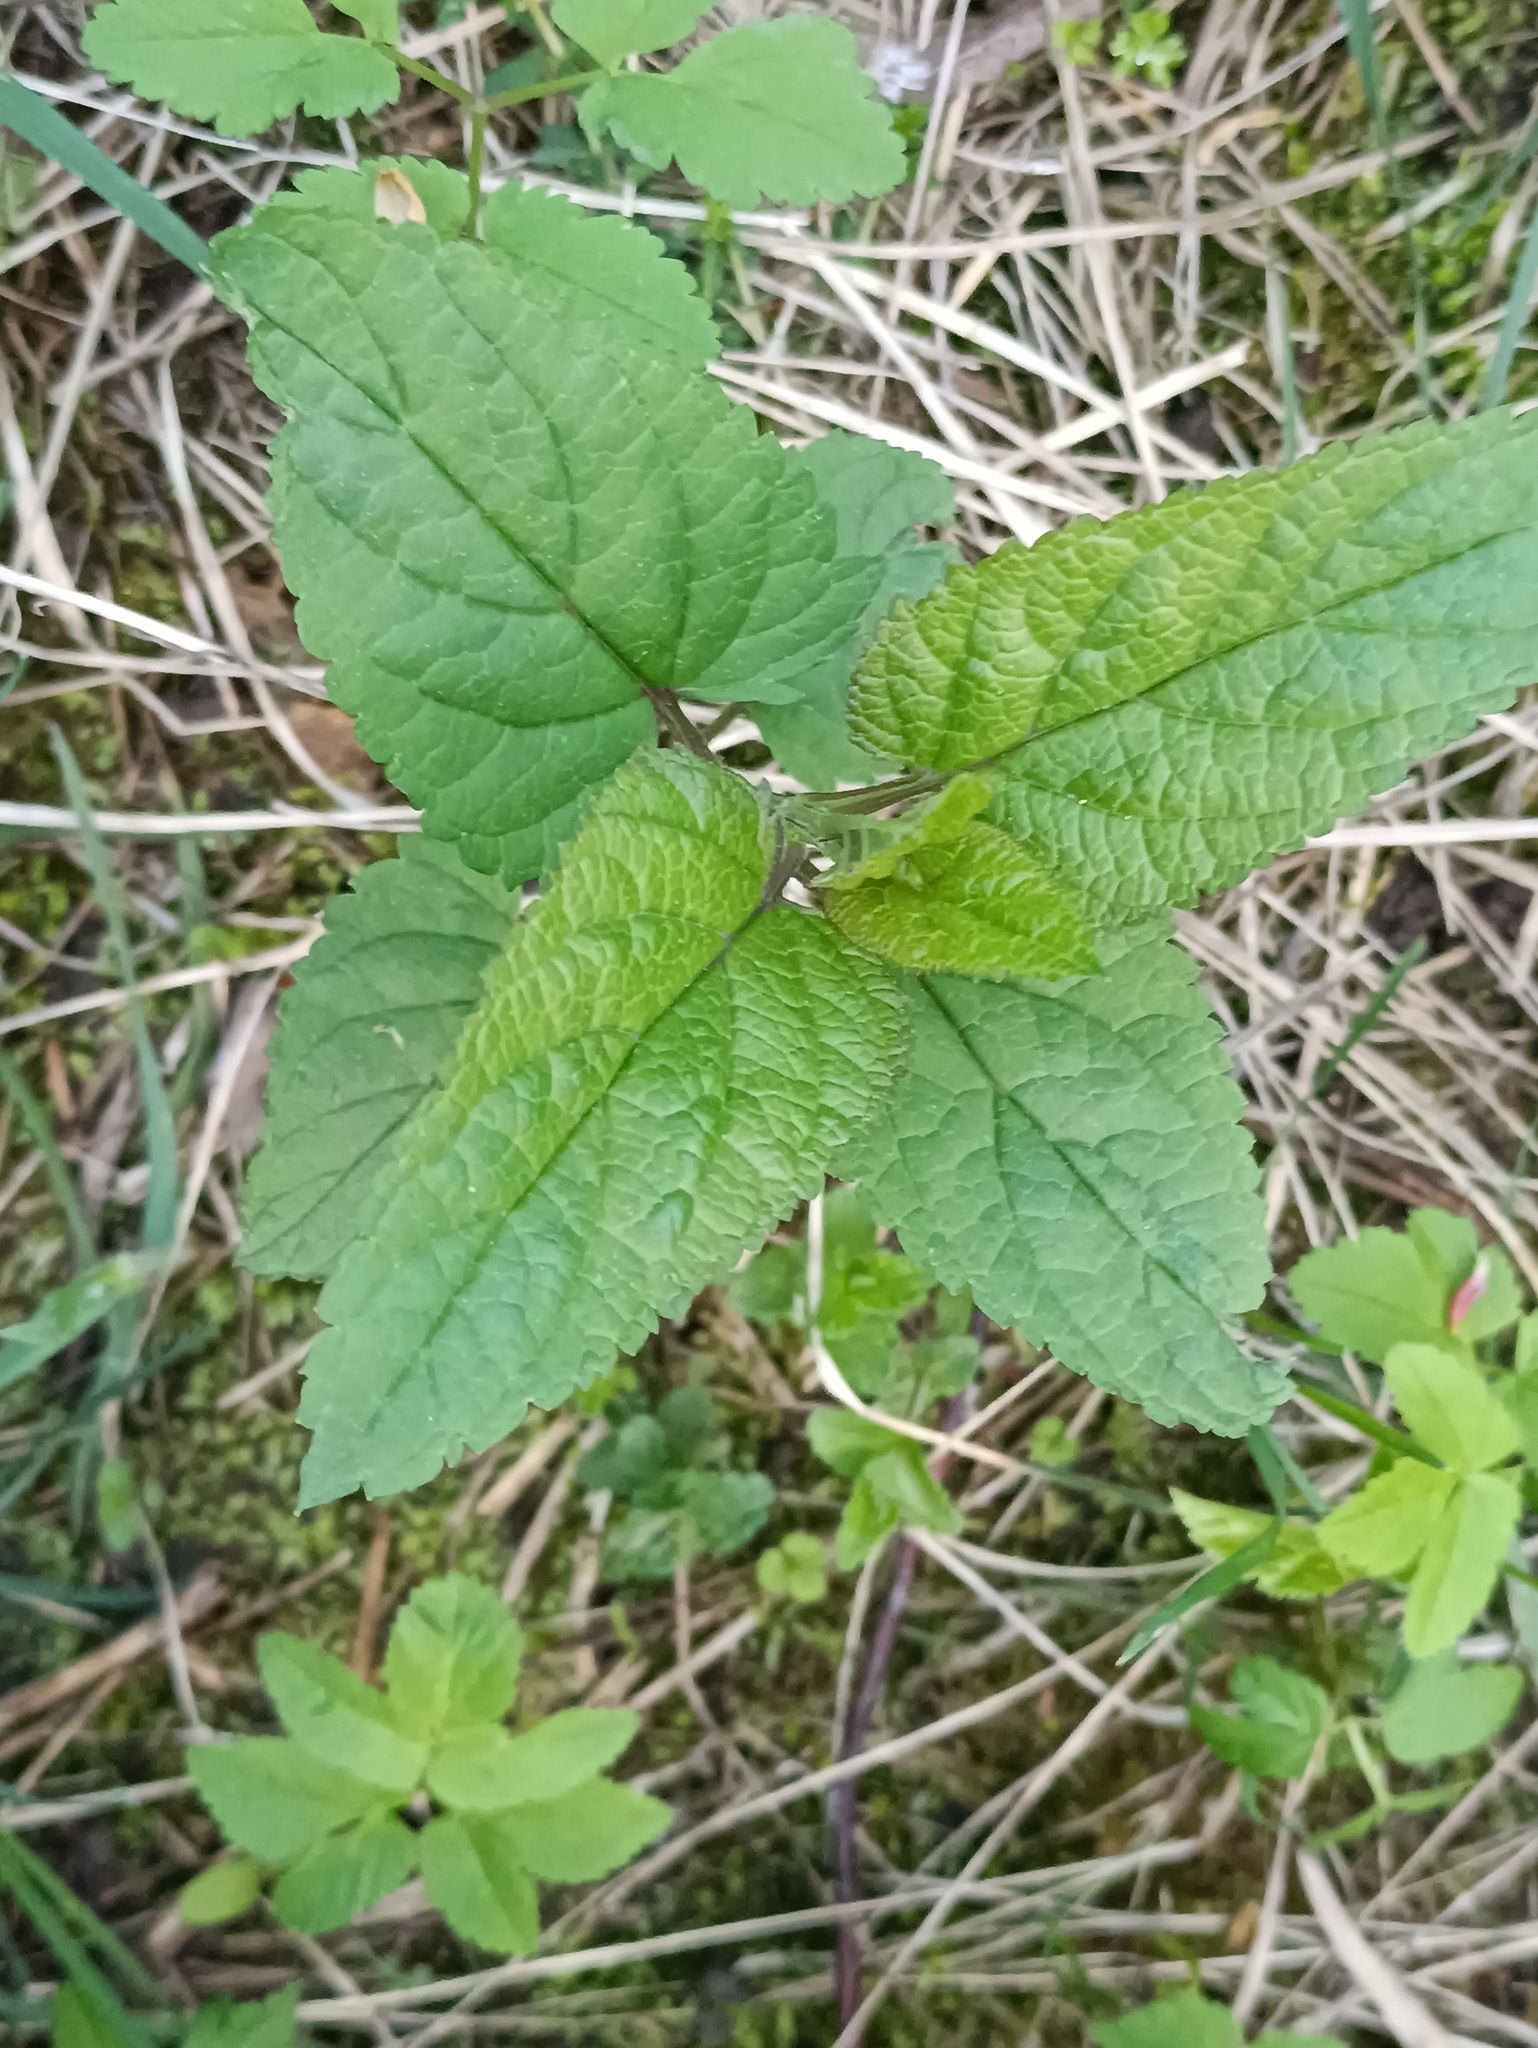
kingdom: Plantae
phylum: Tracheophyta
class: Magnoliopsida
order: Lamiales
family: Scrophulariaceae
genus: Scrophularia
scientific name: Scrophularia nodosa
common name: Common figwort
